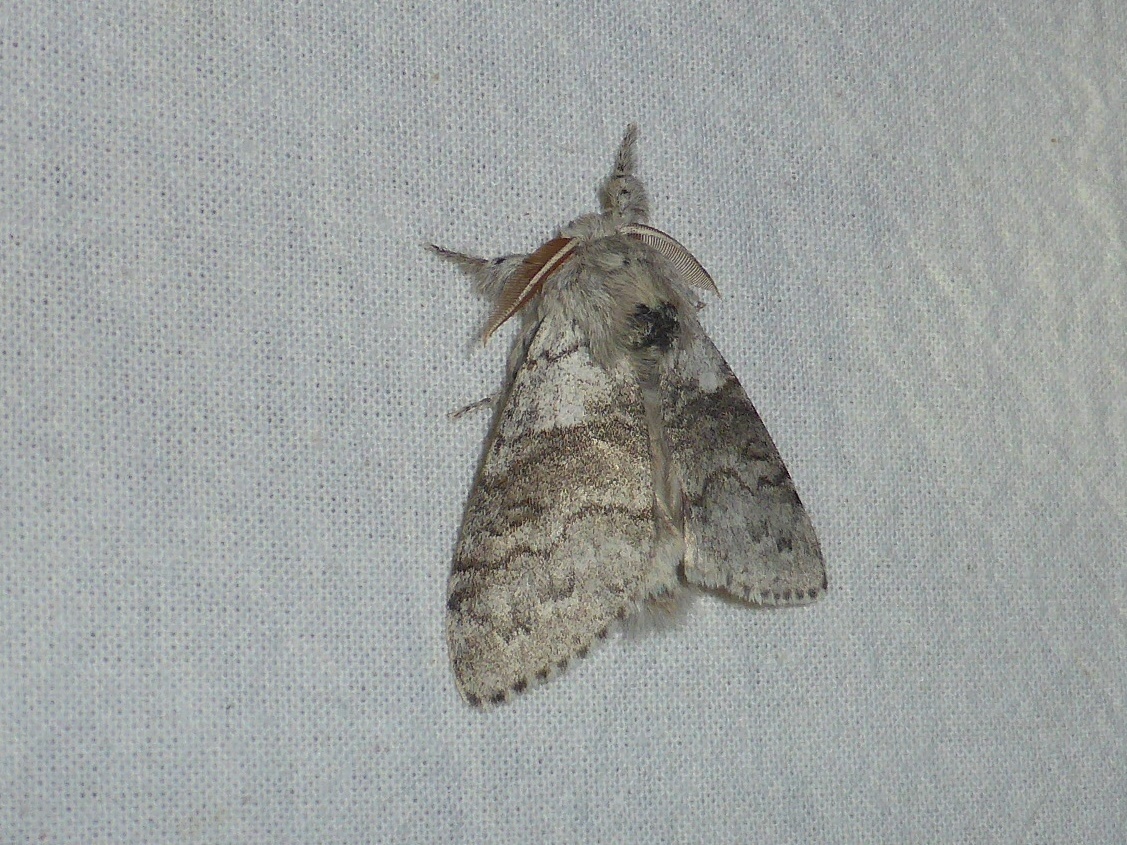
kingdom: Animalia
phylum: Arthropoda
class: Insecta
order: Lepidoptera
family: Erebidae
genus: Calliteara
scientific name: Calliteara pudibunda
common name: Pale tussock
